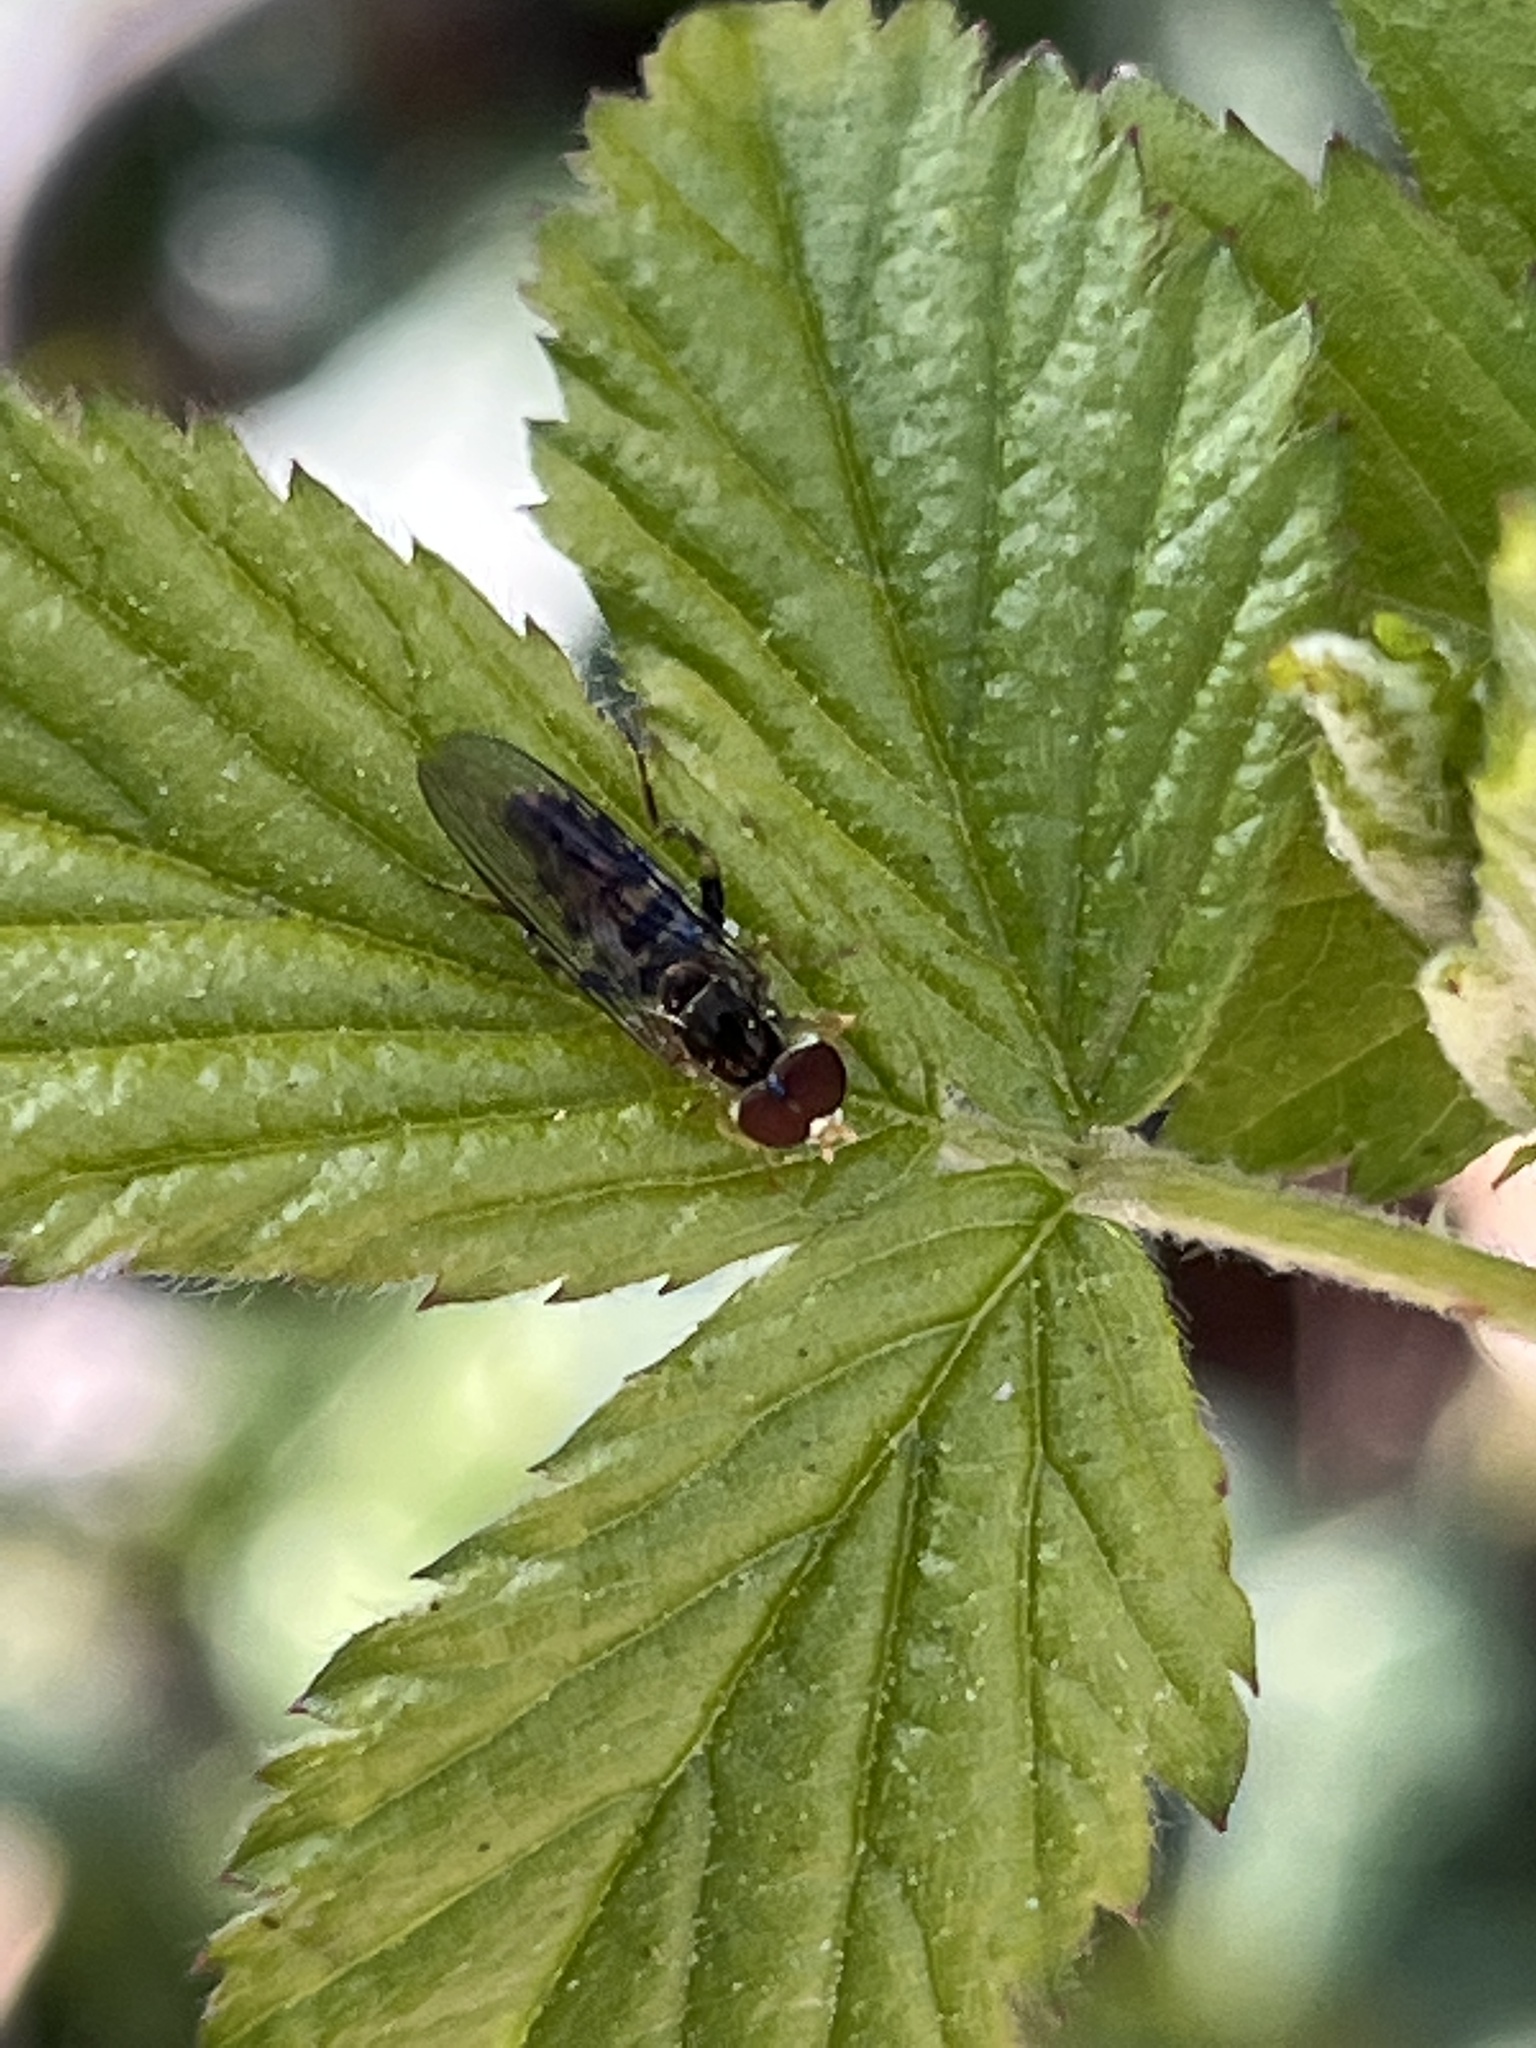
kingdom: Animalia
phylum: Arthropoda
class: Insecta
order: Diptera
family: Syrphidae
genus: Toxomerus
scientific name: Toxomerus geminatus
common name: Eastern calligrapher
